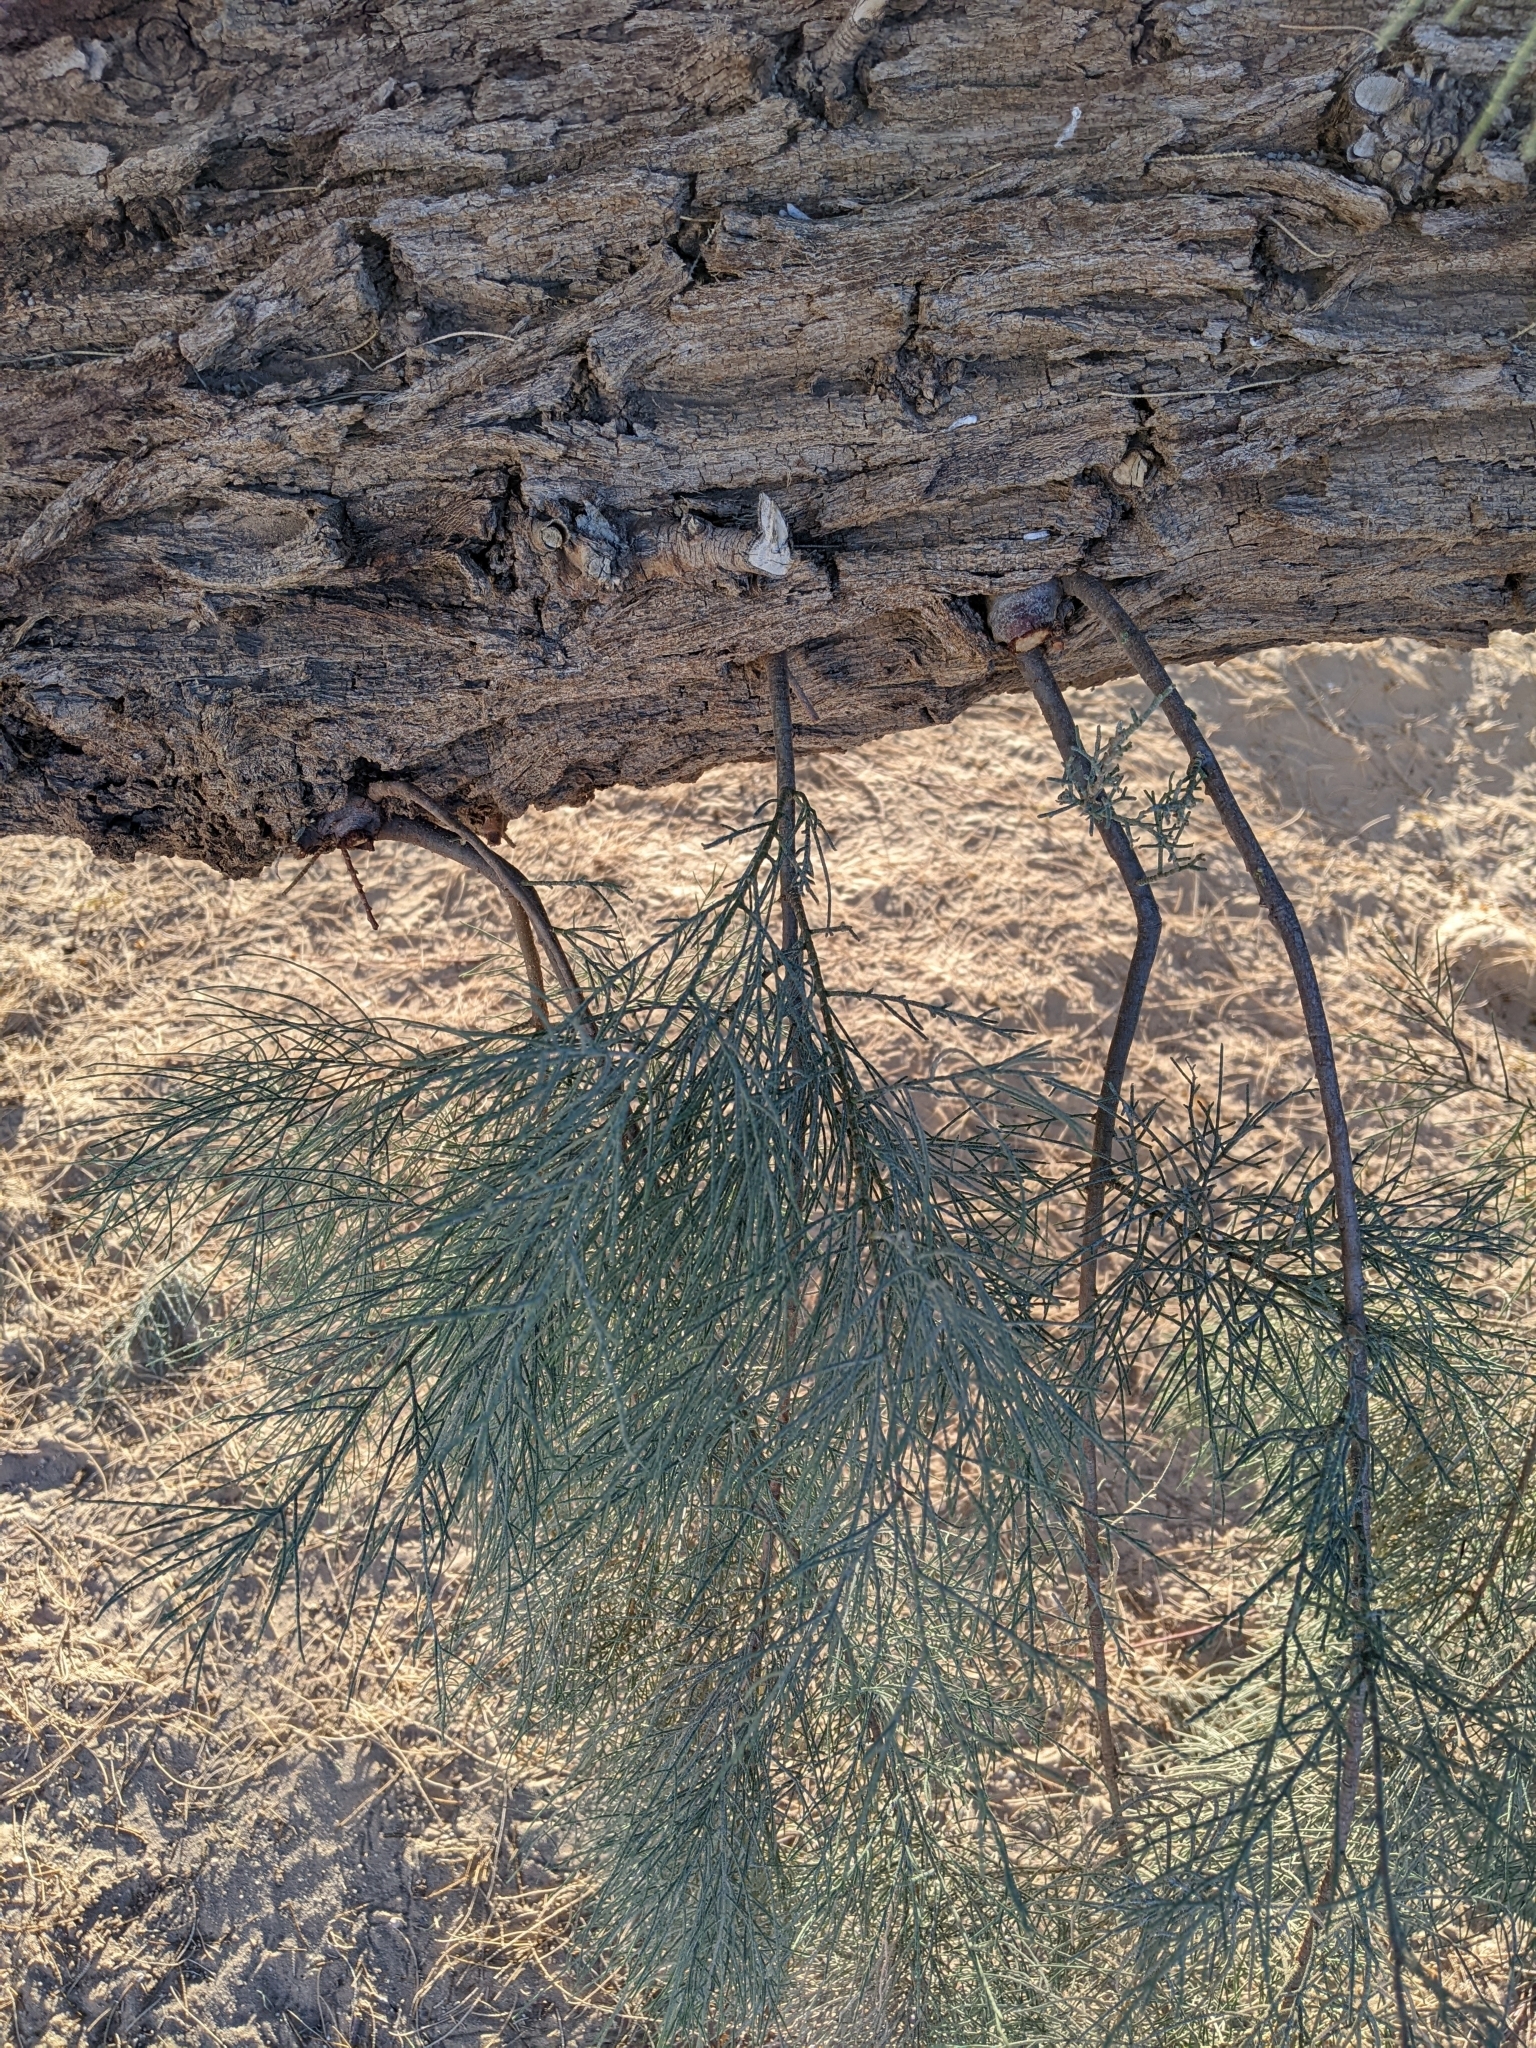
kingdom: Plantae
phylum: Tracheophyta
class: Magnoliopsida
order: Caryophyllales
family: Tamaricaceae
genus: Tamarix
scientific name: Tamarix aphylla
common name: Athel tamarisk
